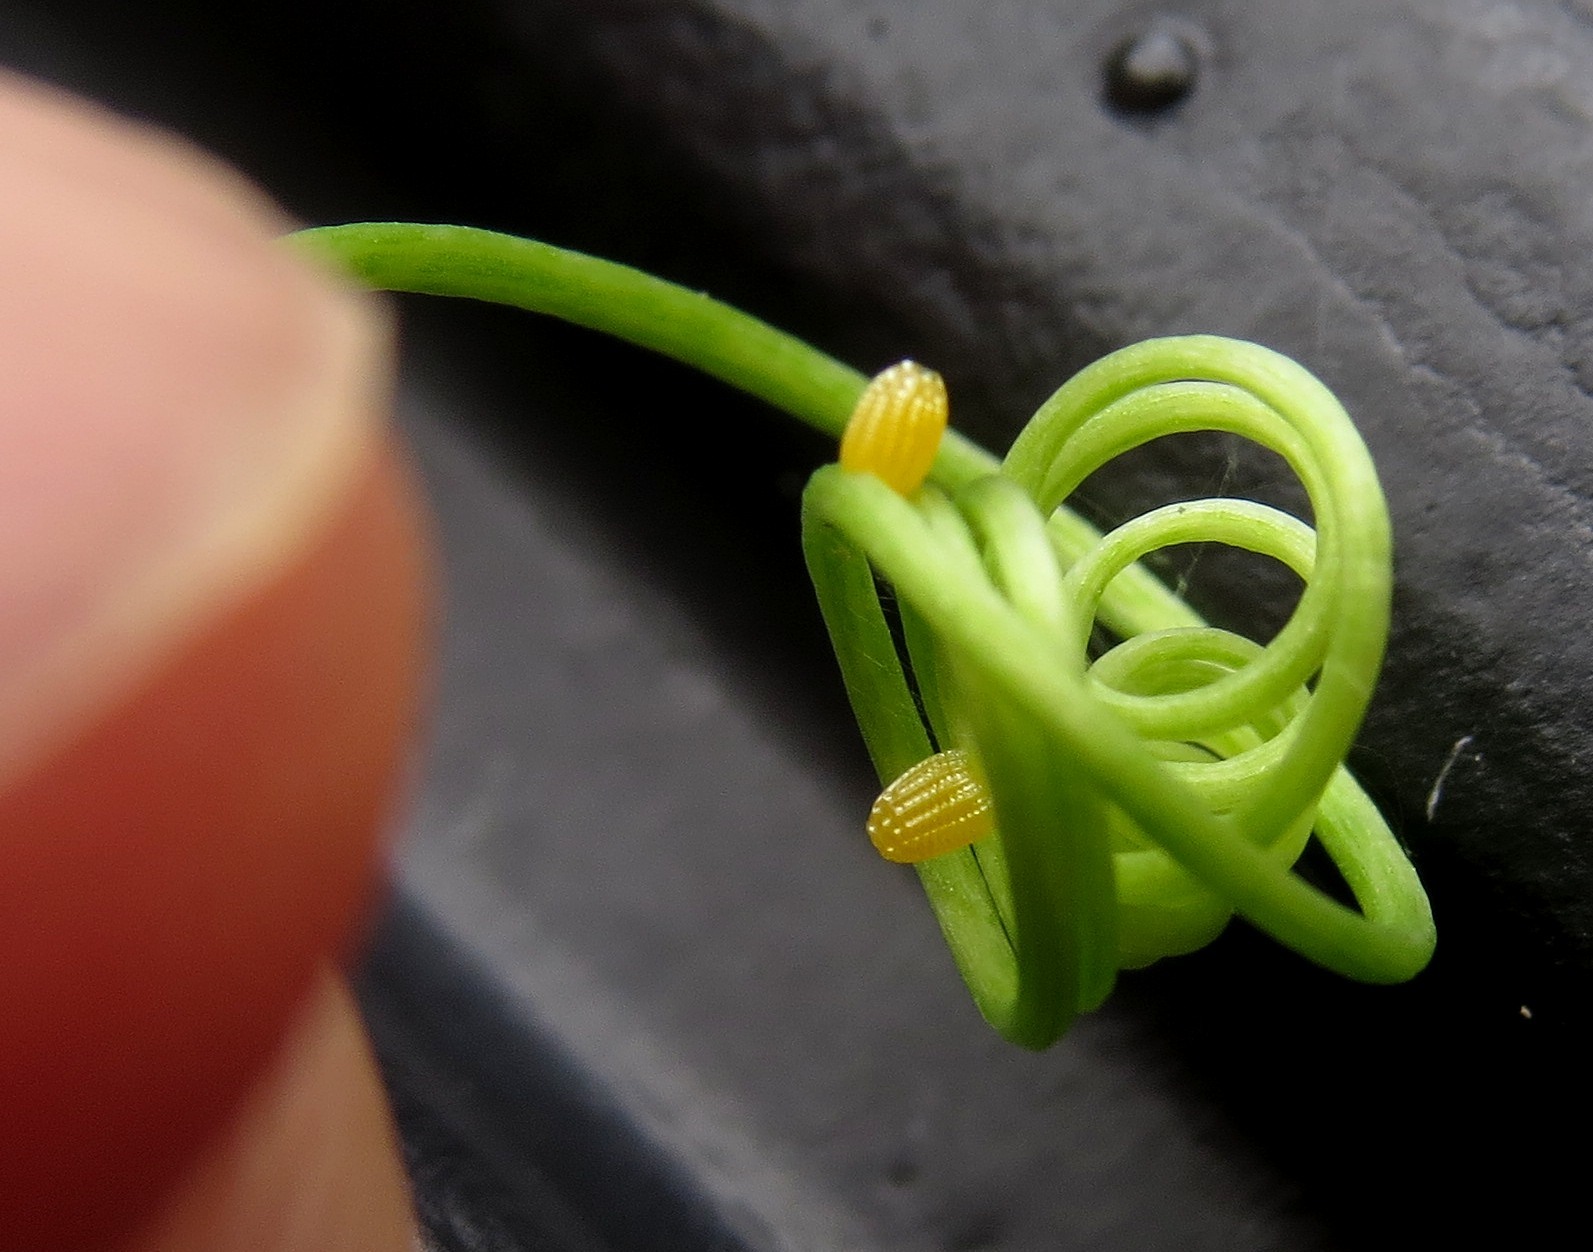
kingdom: Animalia
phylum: Arthropoda
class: Insecta
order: Lepidoptera
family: Nymphalidae
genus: Dione
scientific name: Dione vanillae
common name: Gulf fritillary
